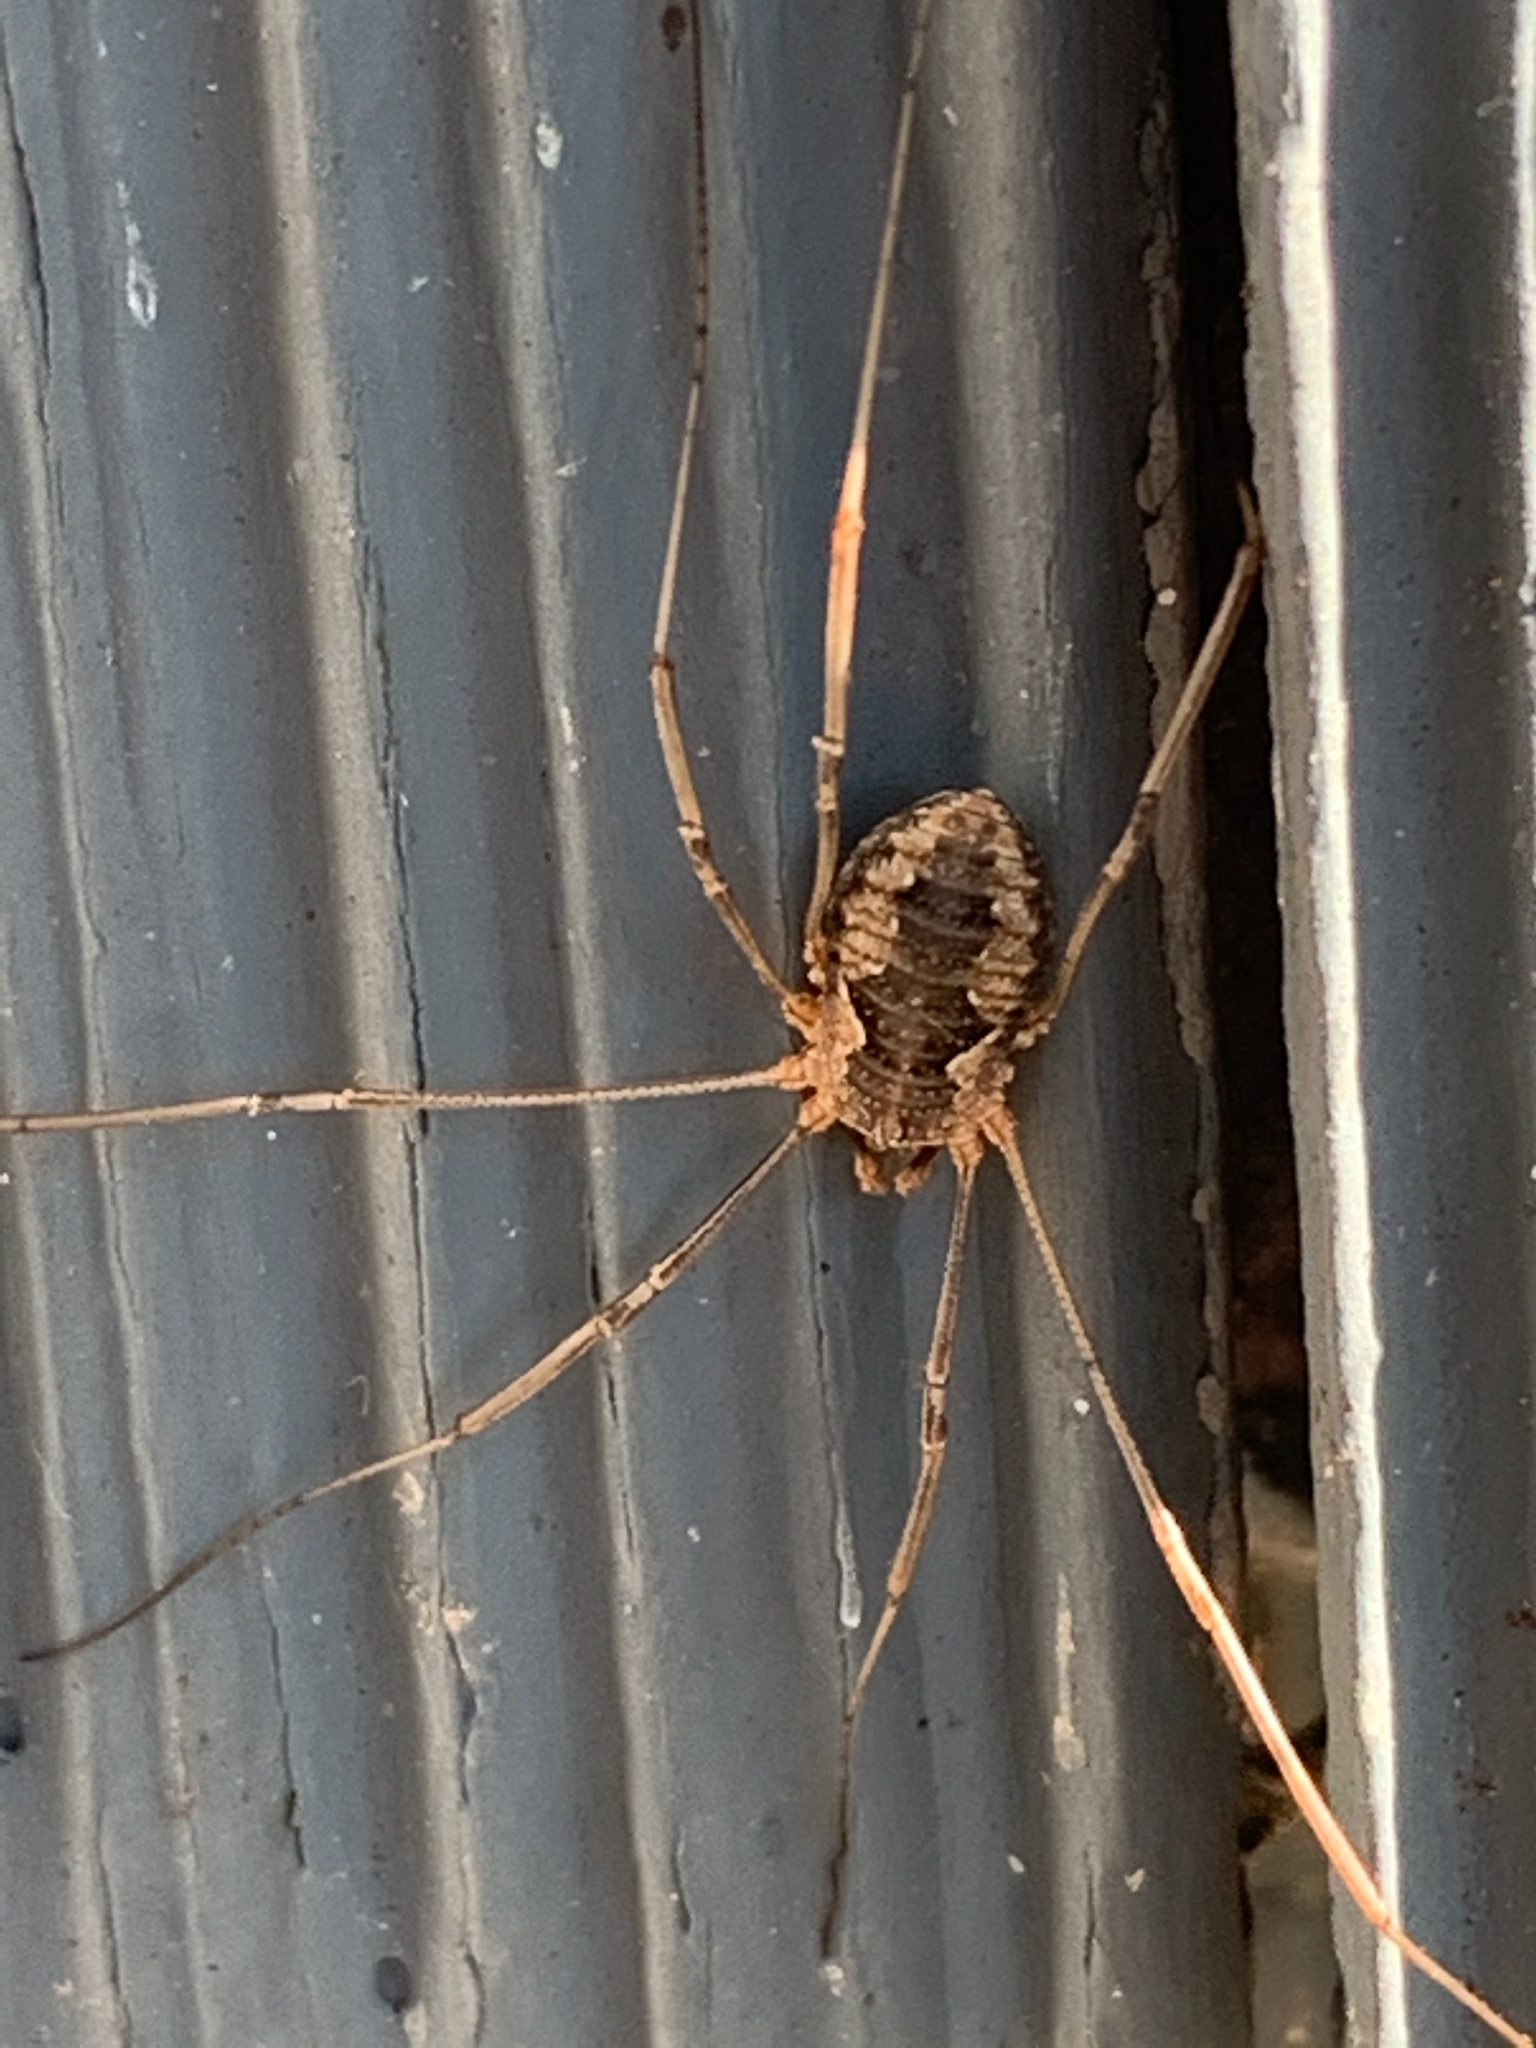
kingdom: Animalia
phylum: Arthropoda
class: Arachnida
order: Opiliones
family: Phalangiidae
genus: Phalangium
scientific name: Phalangium opilio
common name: Daddy longleg
